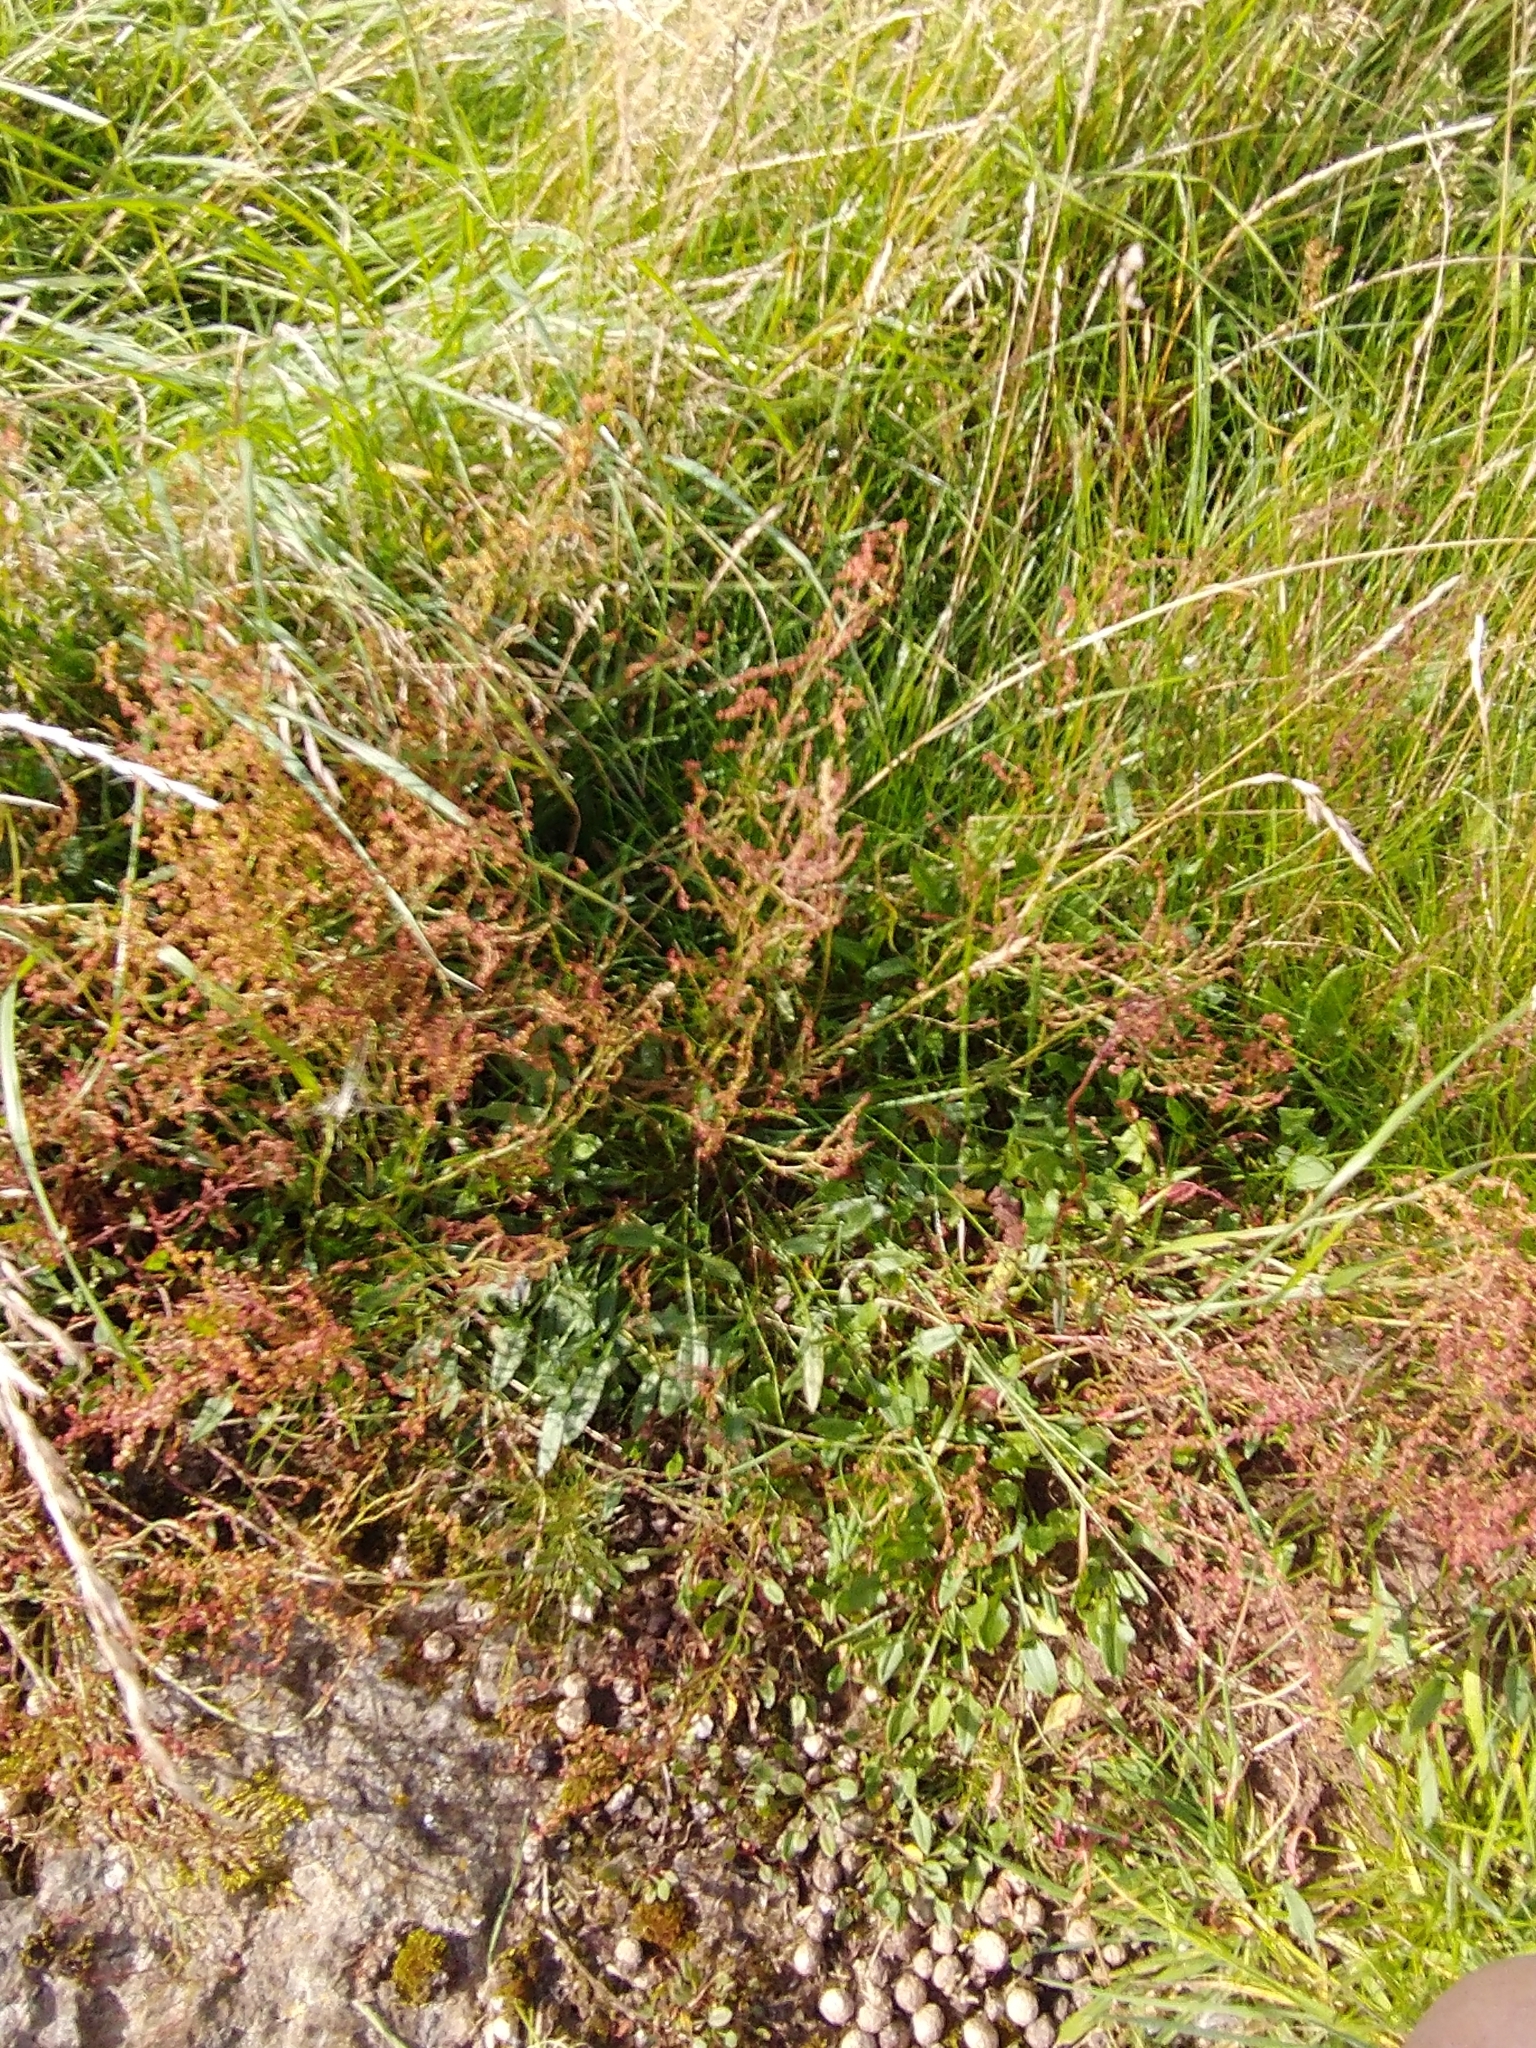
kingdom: Plantae
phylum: Tracheophyta
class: Magnoliopsida
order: Caryophyllales
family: Polygonaceae
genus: Rumex
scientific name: Rumex acetosella
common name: Common sheep sorrel
